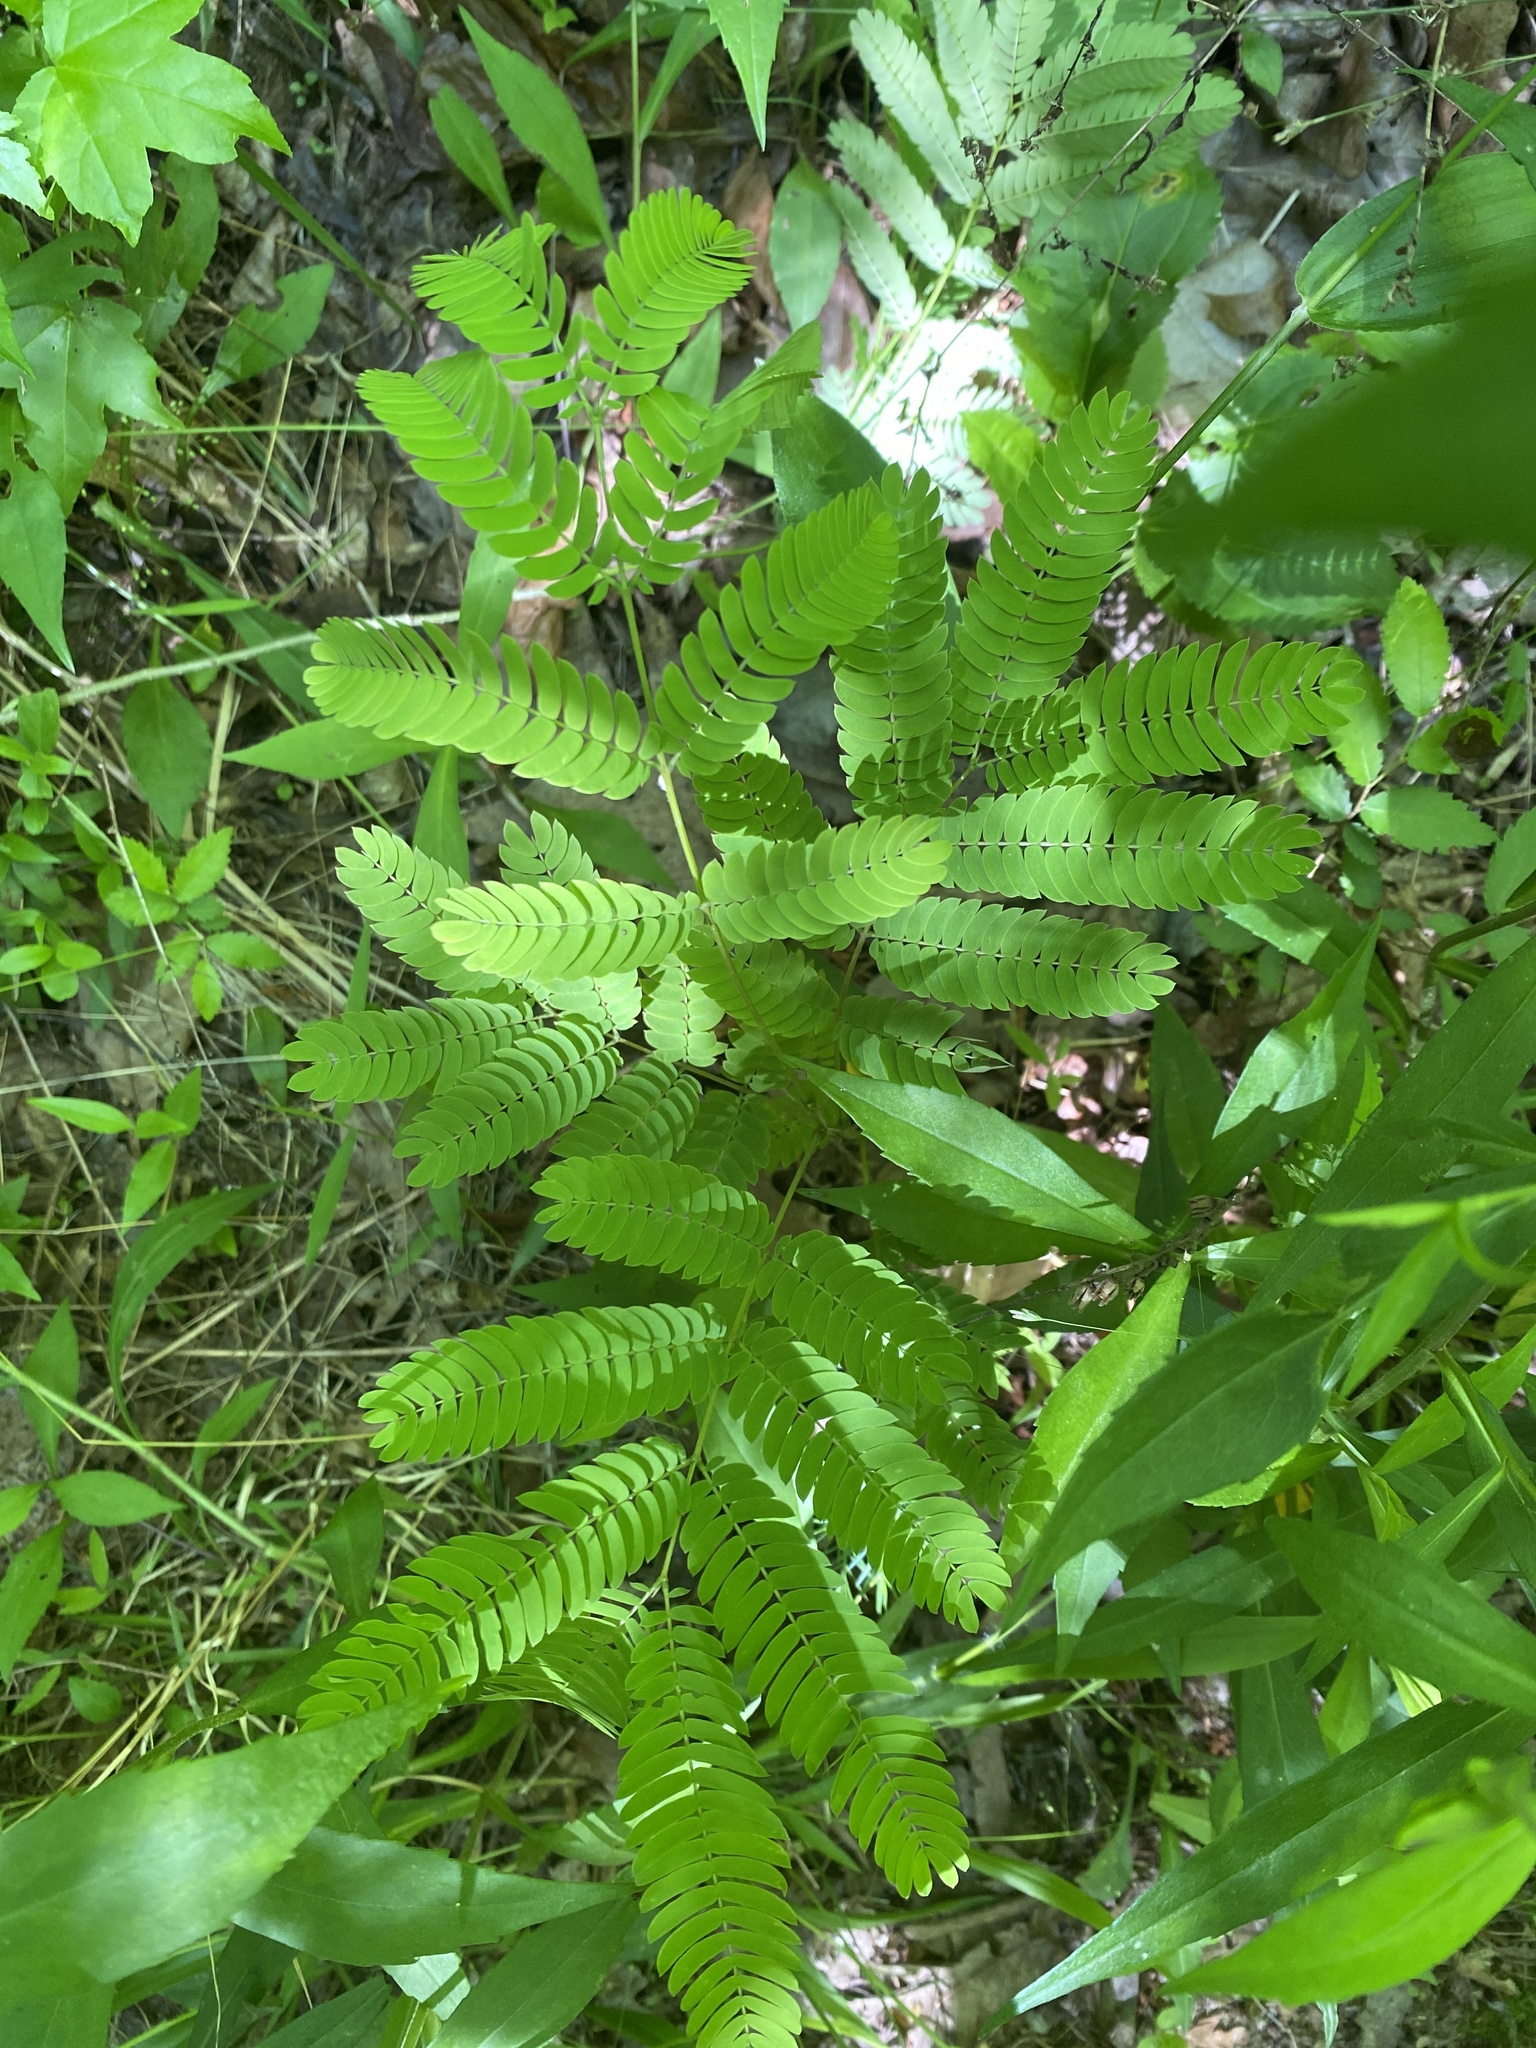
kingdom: Plantae
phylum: Tracheophyta
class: Magnoliopsida
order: Fabales
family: Fabaceae
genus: Albizia
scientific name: Albizia julibrissin
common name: Silktree
